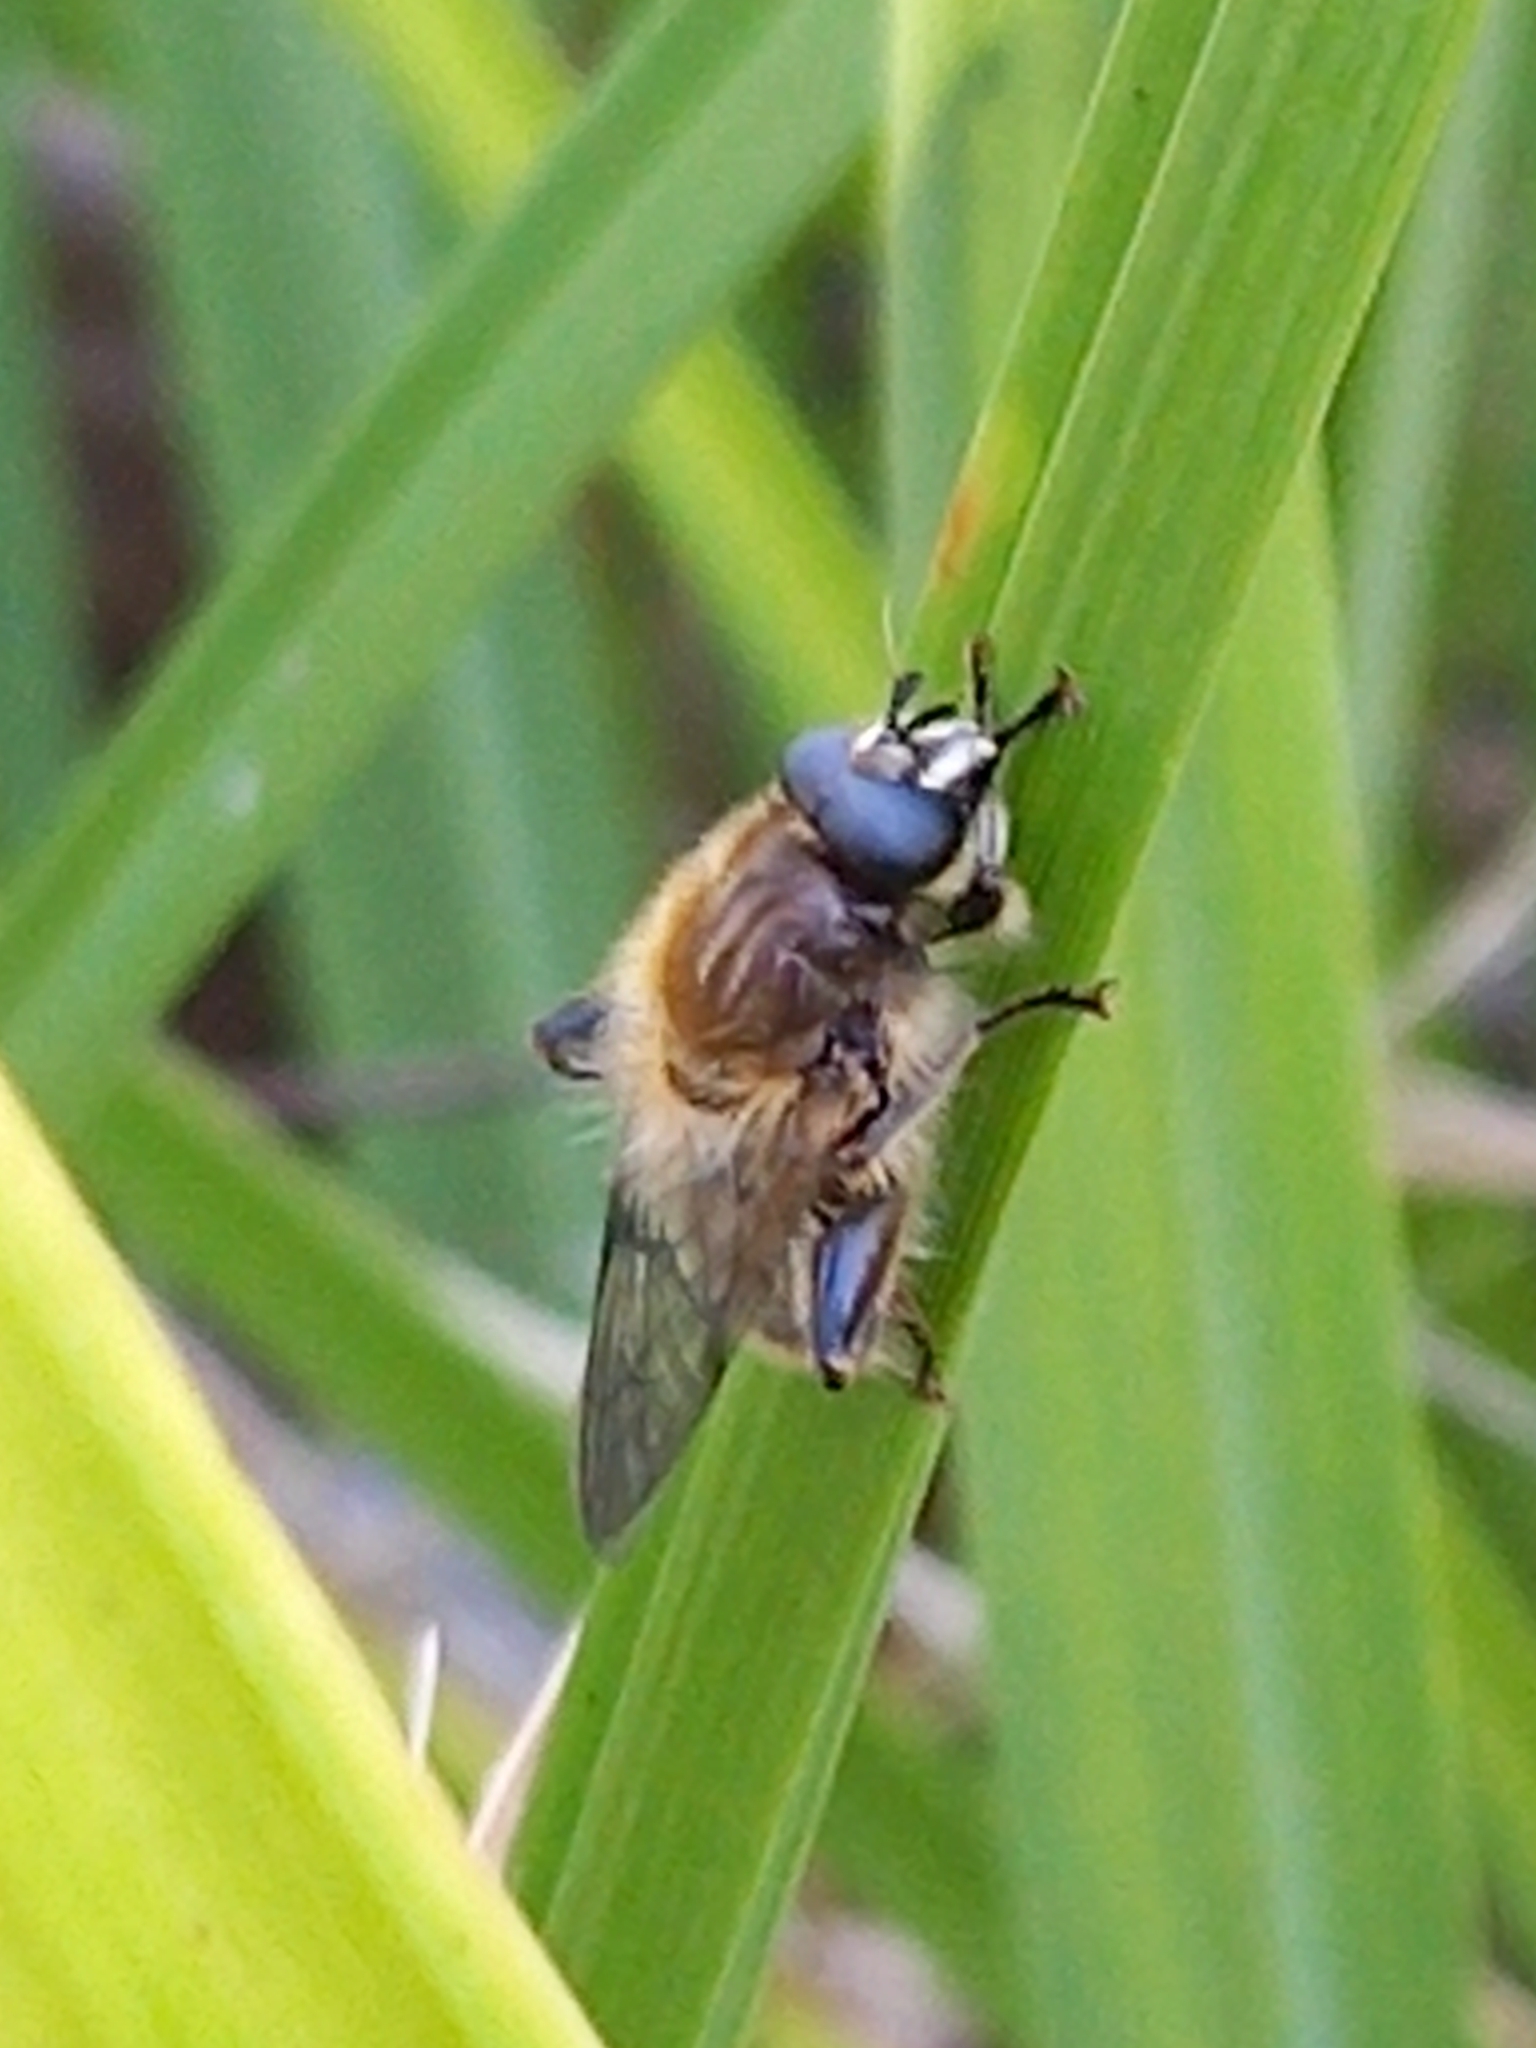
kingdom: Animalia
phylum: Arthropoda
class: Insecta
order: Diptera
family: Syrphidae
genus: Brachypalpus
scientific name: Brachypalpus valgus
